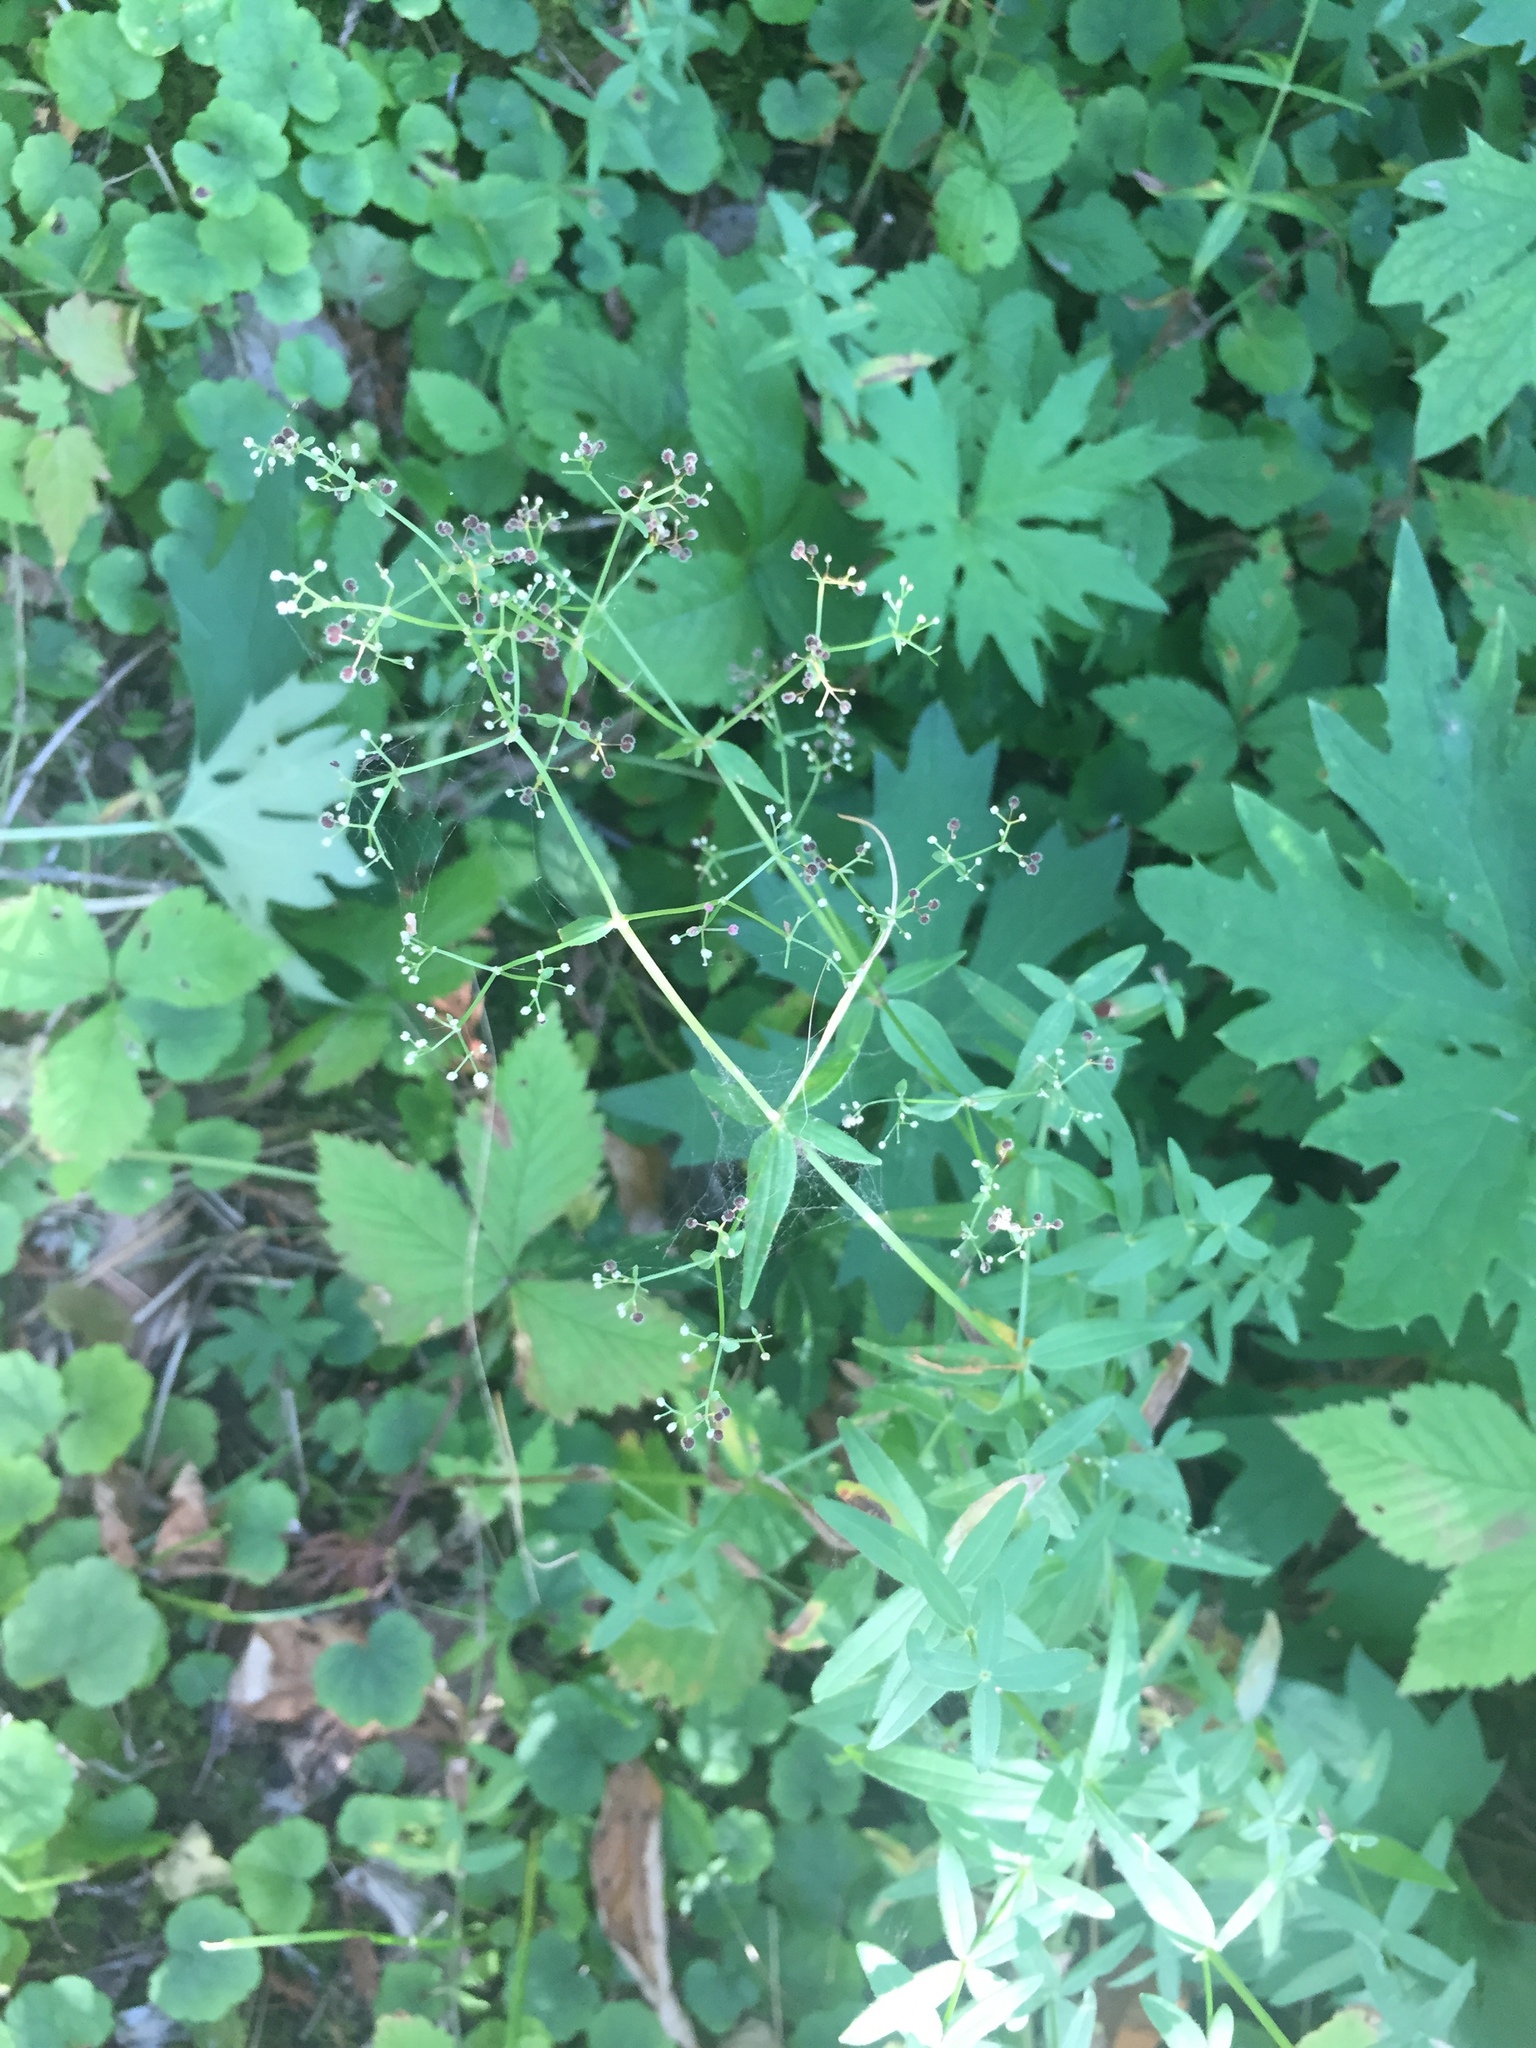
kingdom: Plantae
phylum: Tracheophyta
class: Magnoliopsida
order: Gentianales
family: Rubiaceae
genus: Galium
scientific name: Galium boreale
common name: Northern bedstraw
